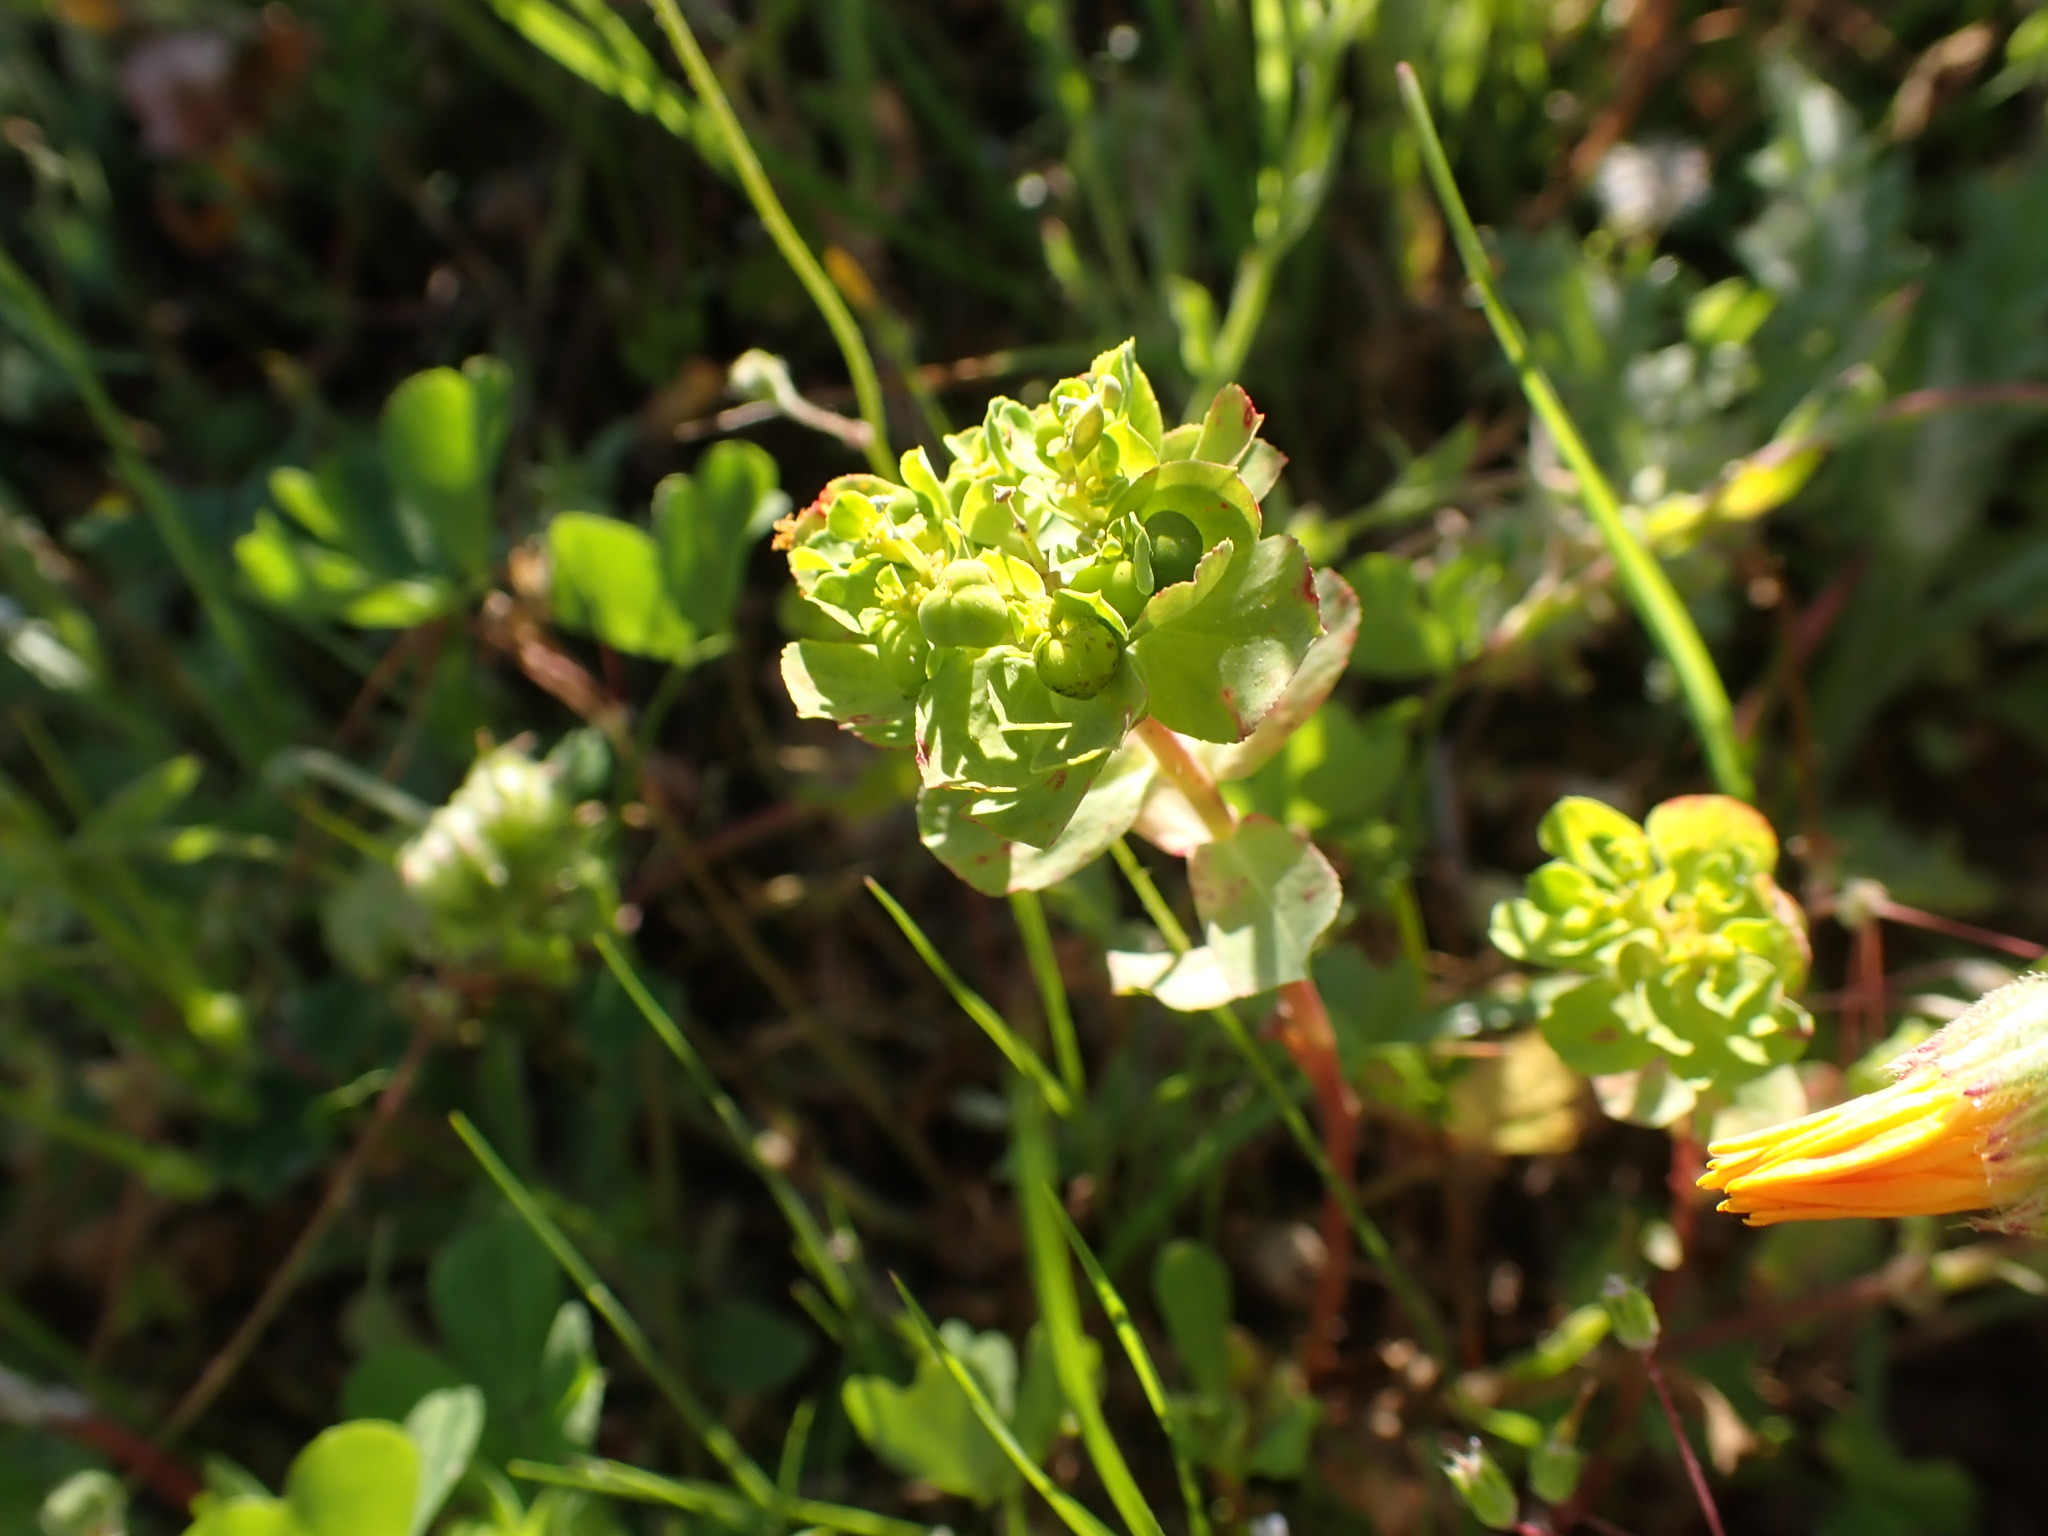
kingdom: Plantae
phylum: Tracheophyta
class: Magnoliopsida
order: Malpighiales
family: Euphorbiaceae
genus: Euphorbia
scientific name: Euphorbia helioscopia
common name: Sun spurge
